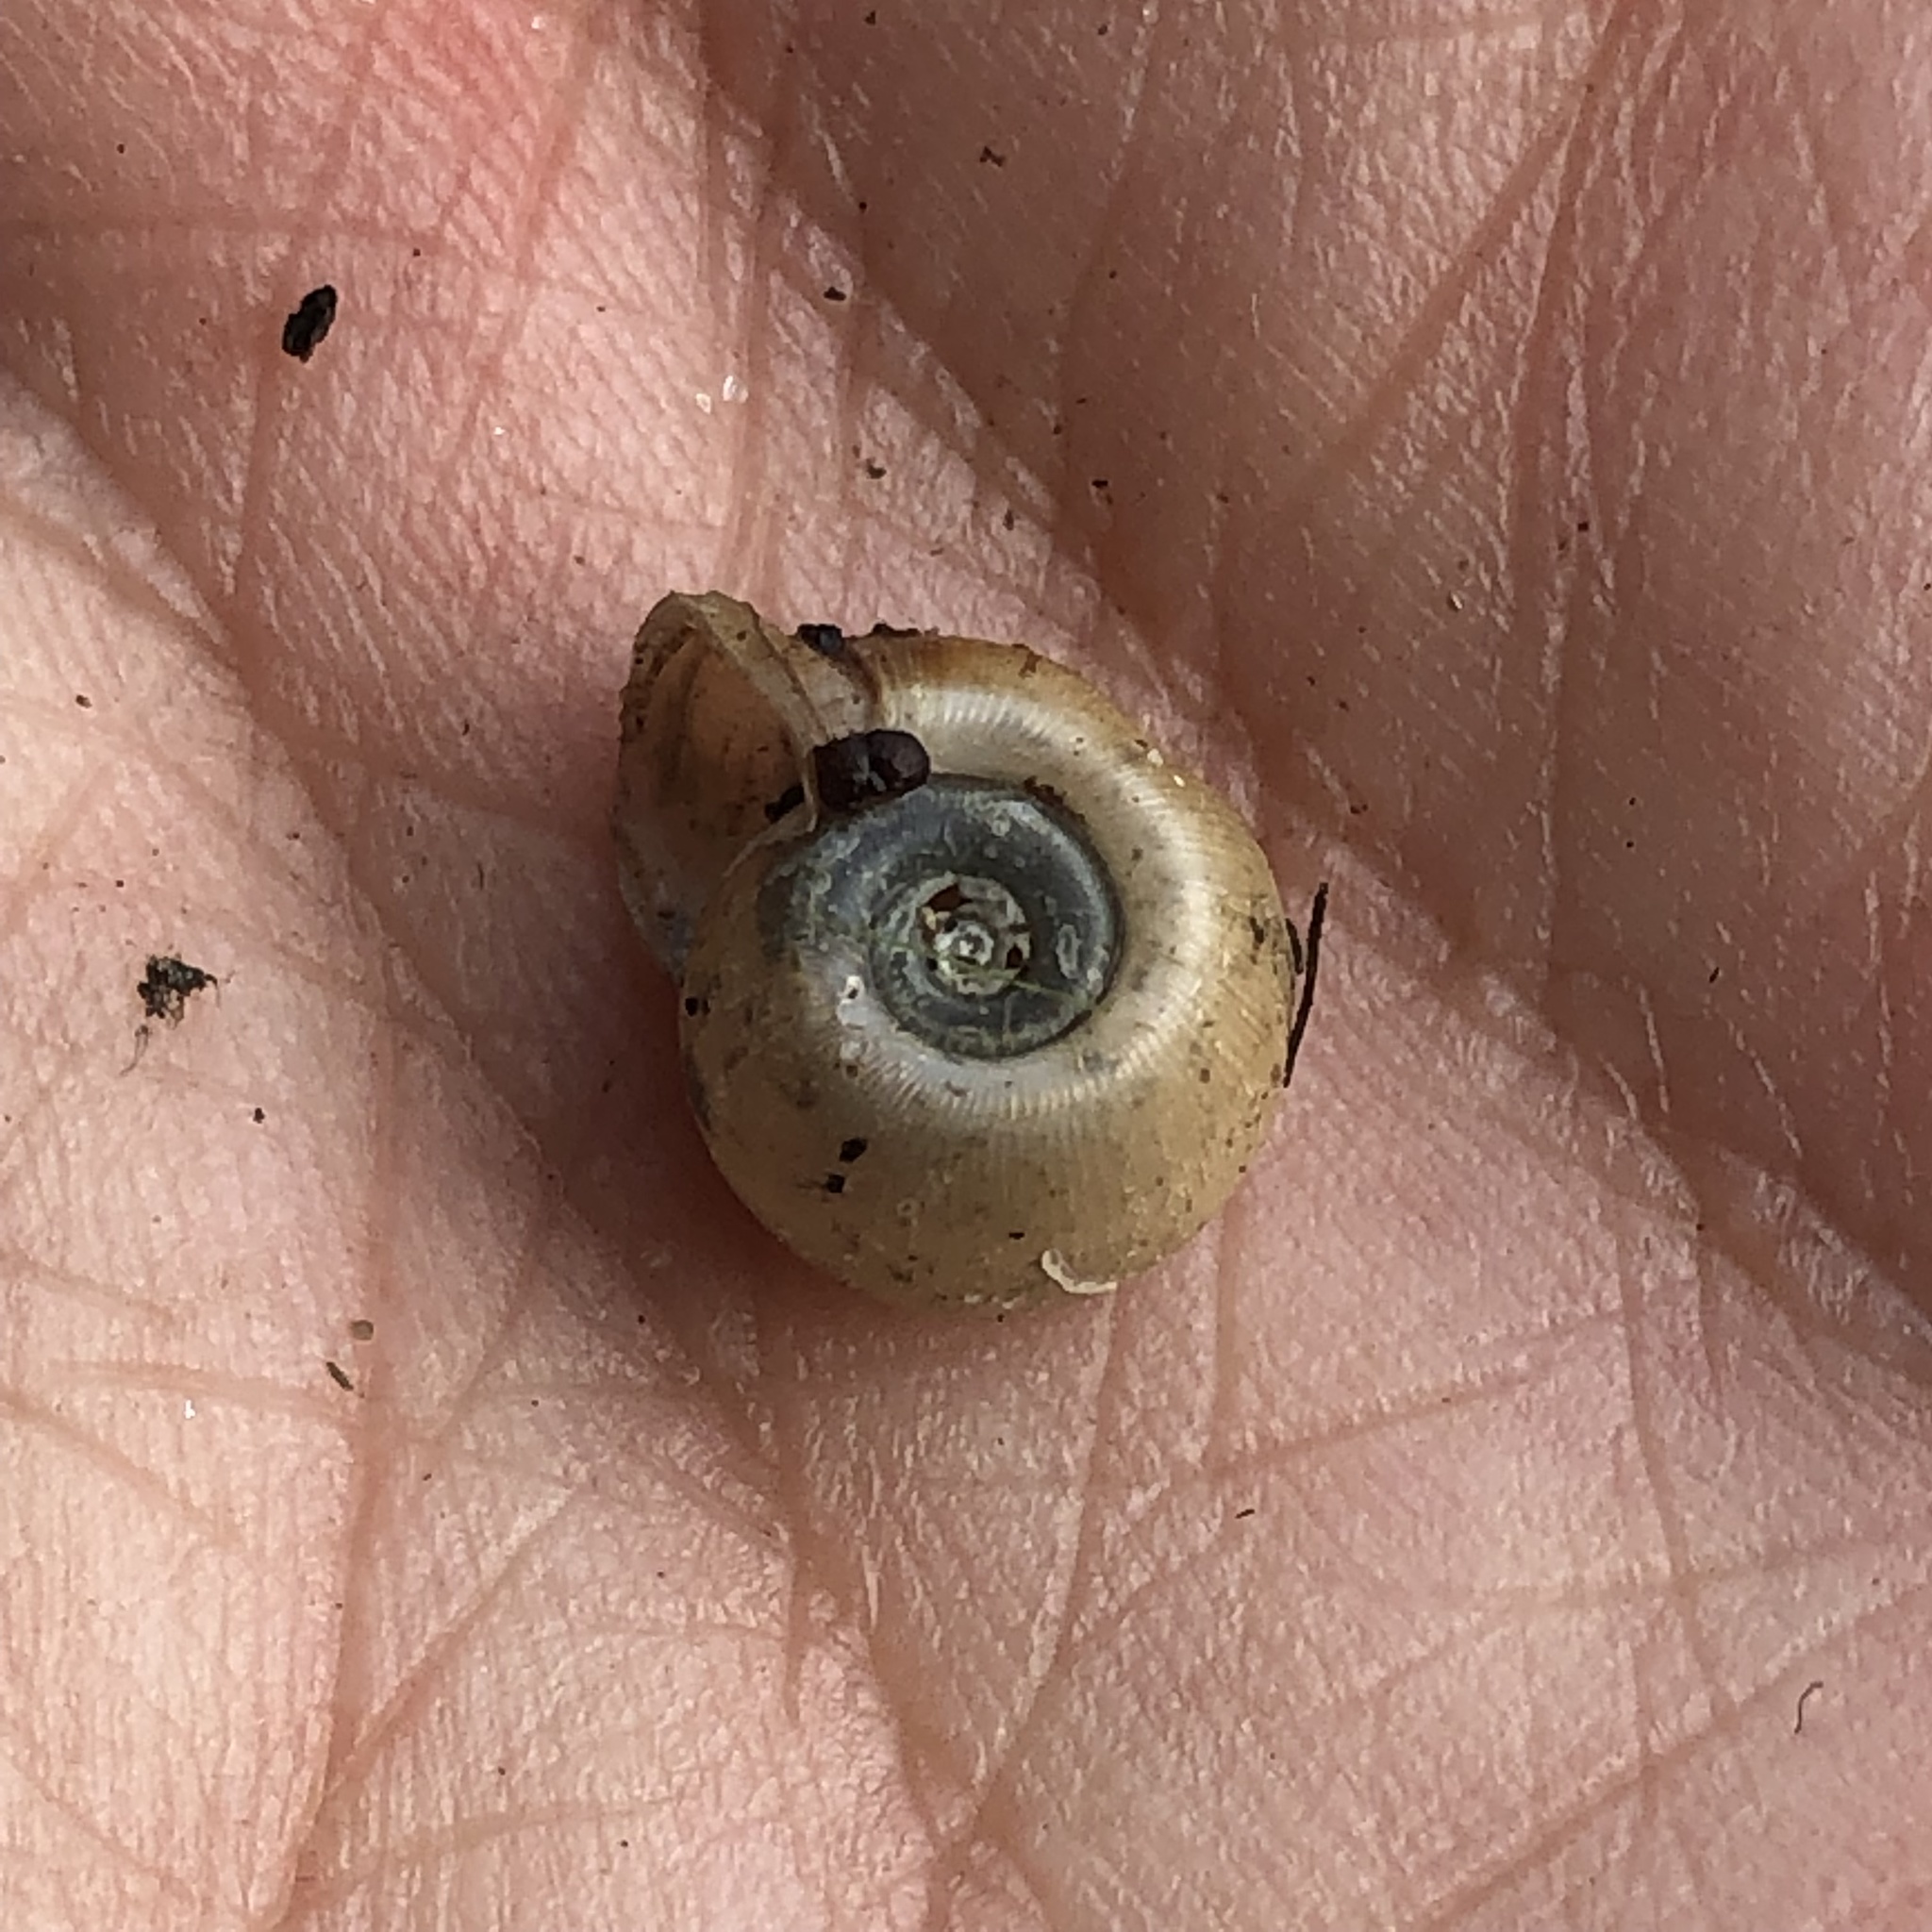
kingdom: Animalia
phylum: Mollusca
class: Gastropoda
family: Planorbidae
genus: Planorbella
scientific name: Planorbella campanulata
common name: Bellmouth ramshorn
